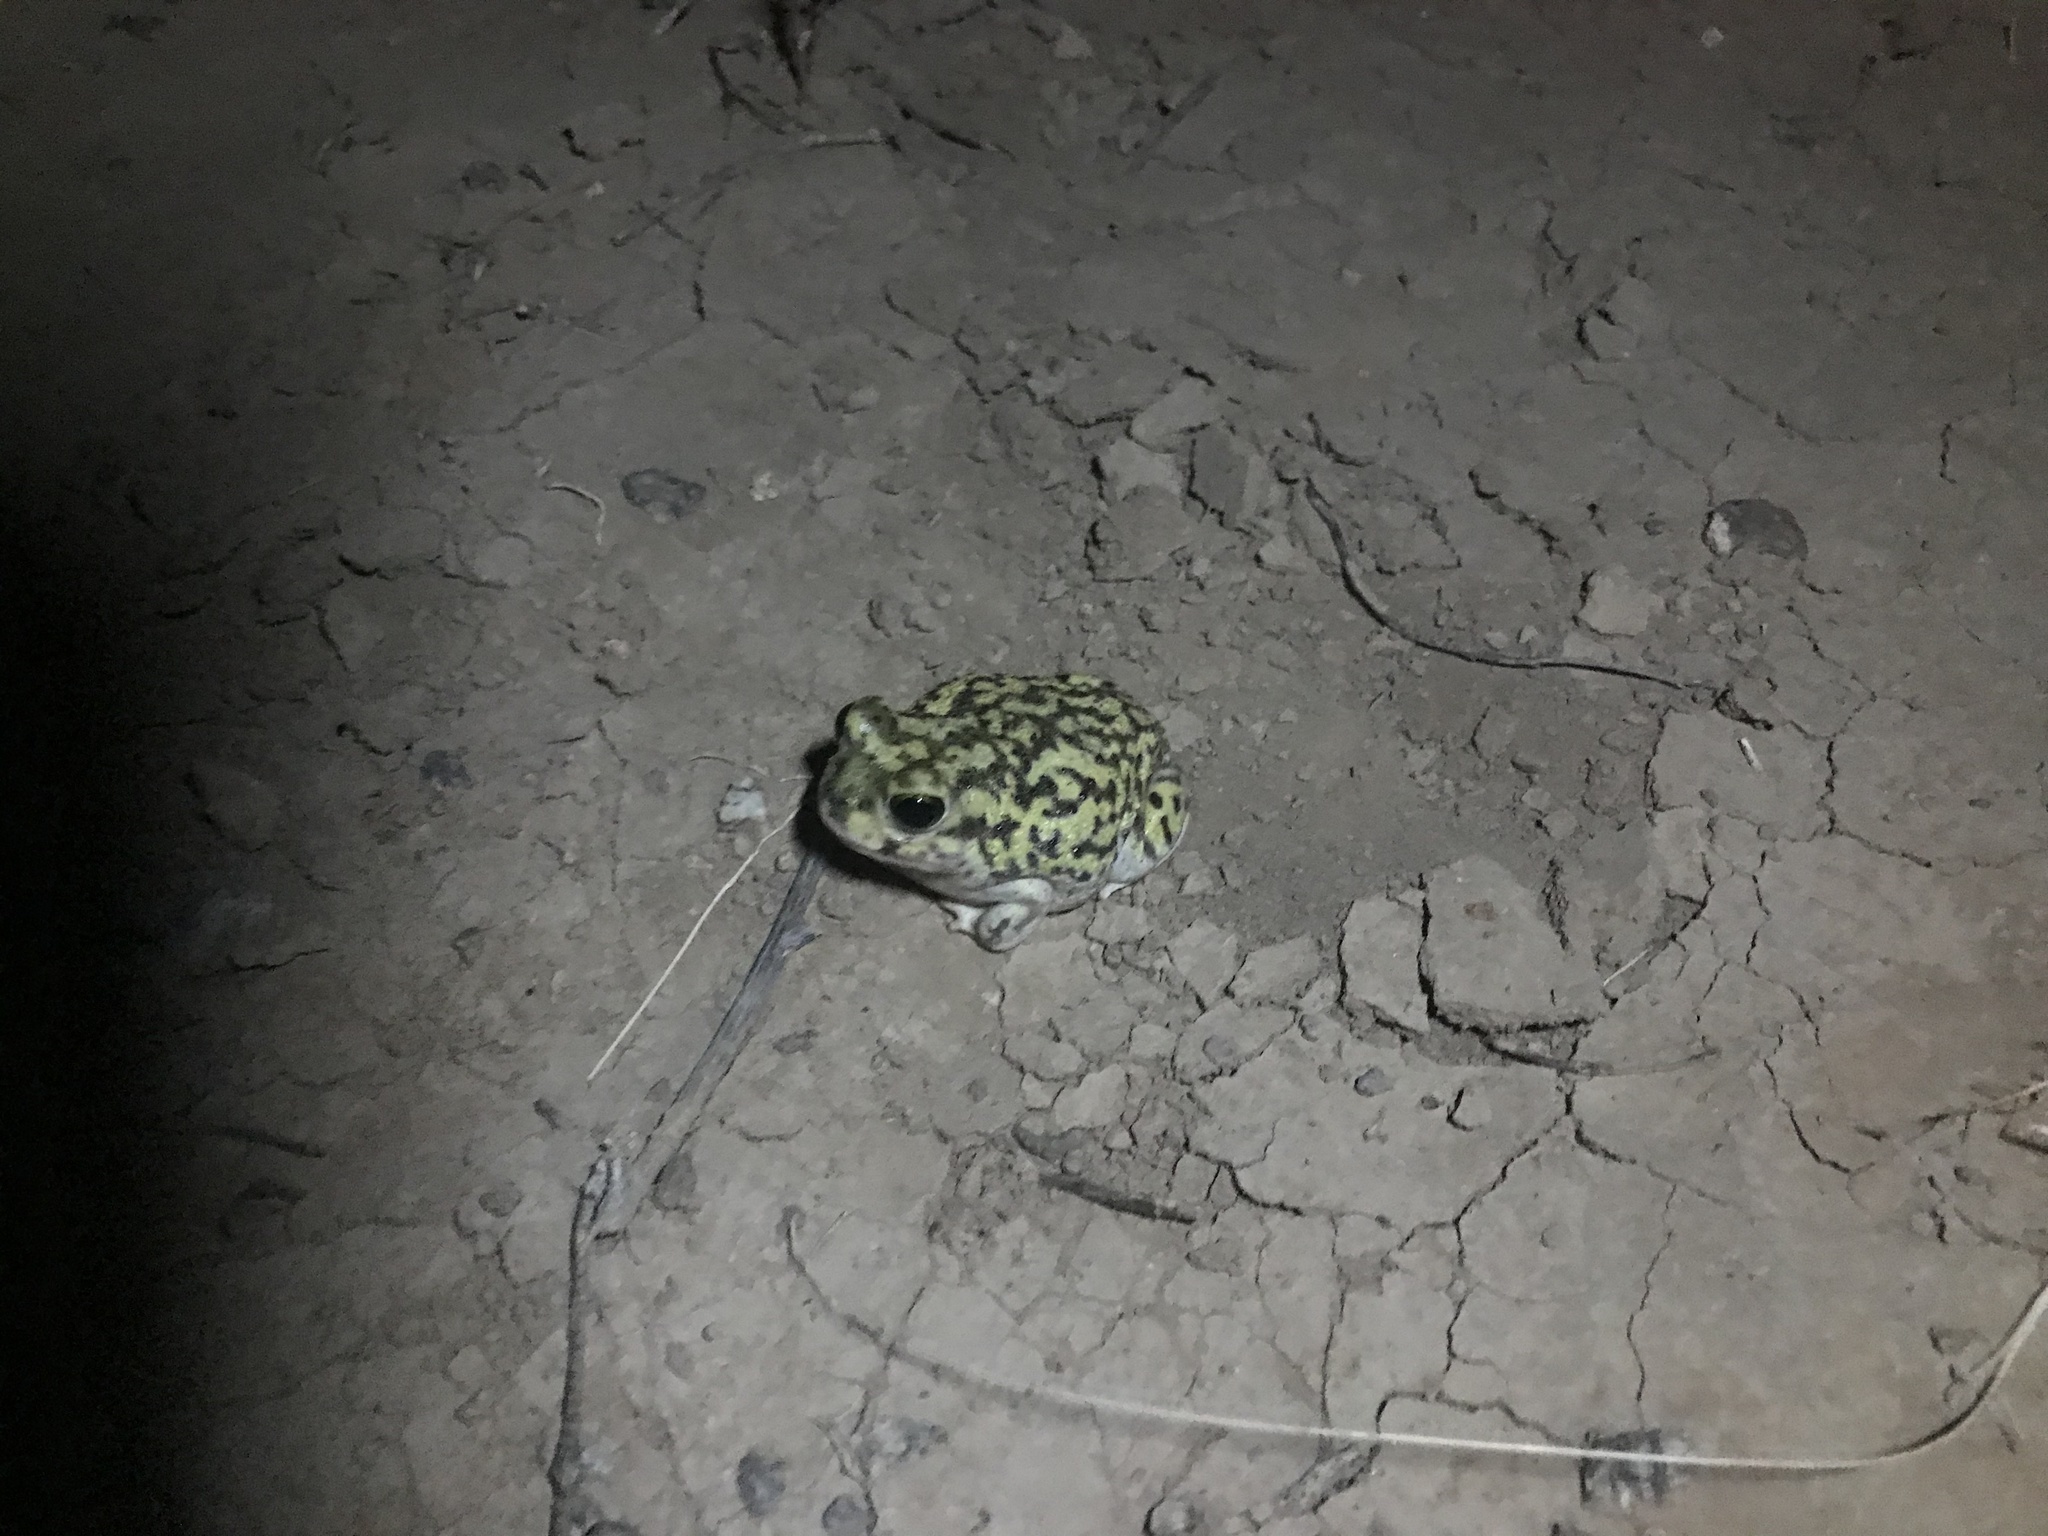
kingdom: Animalia
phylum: Chordata
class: Amphibia
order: Anura
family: Scaphiopodidae
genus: Scaphiopus
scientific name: Scaphiopus couchii
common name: Couch's spadefoot toad
